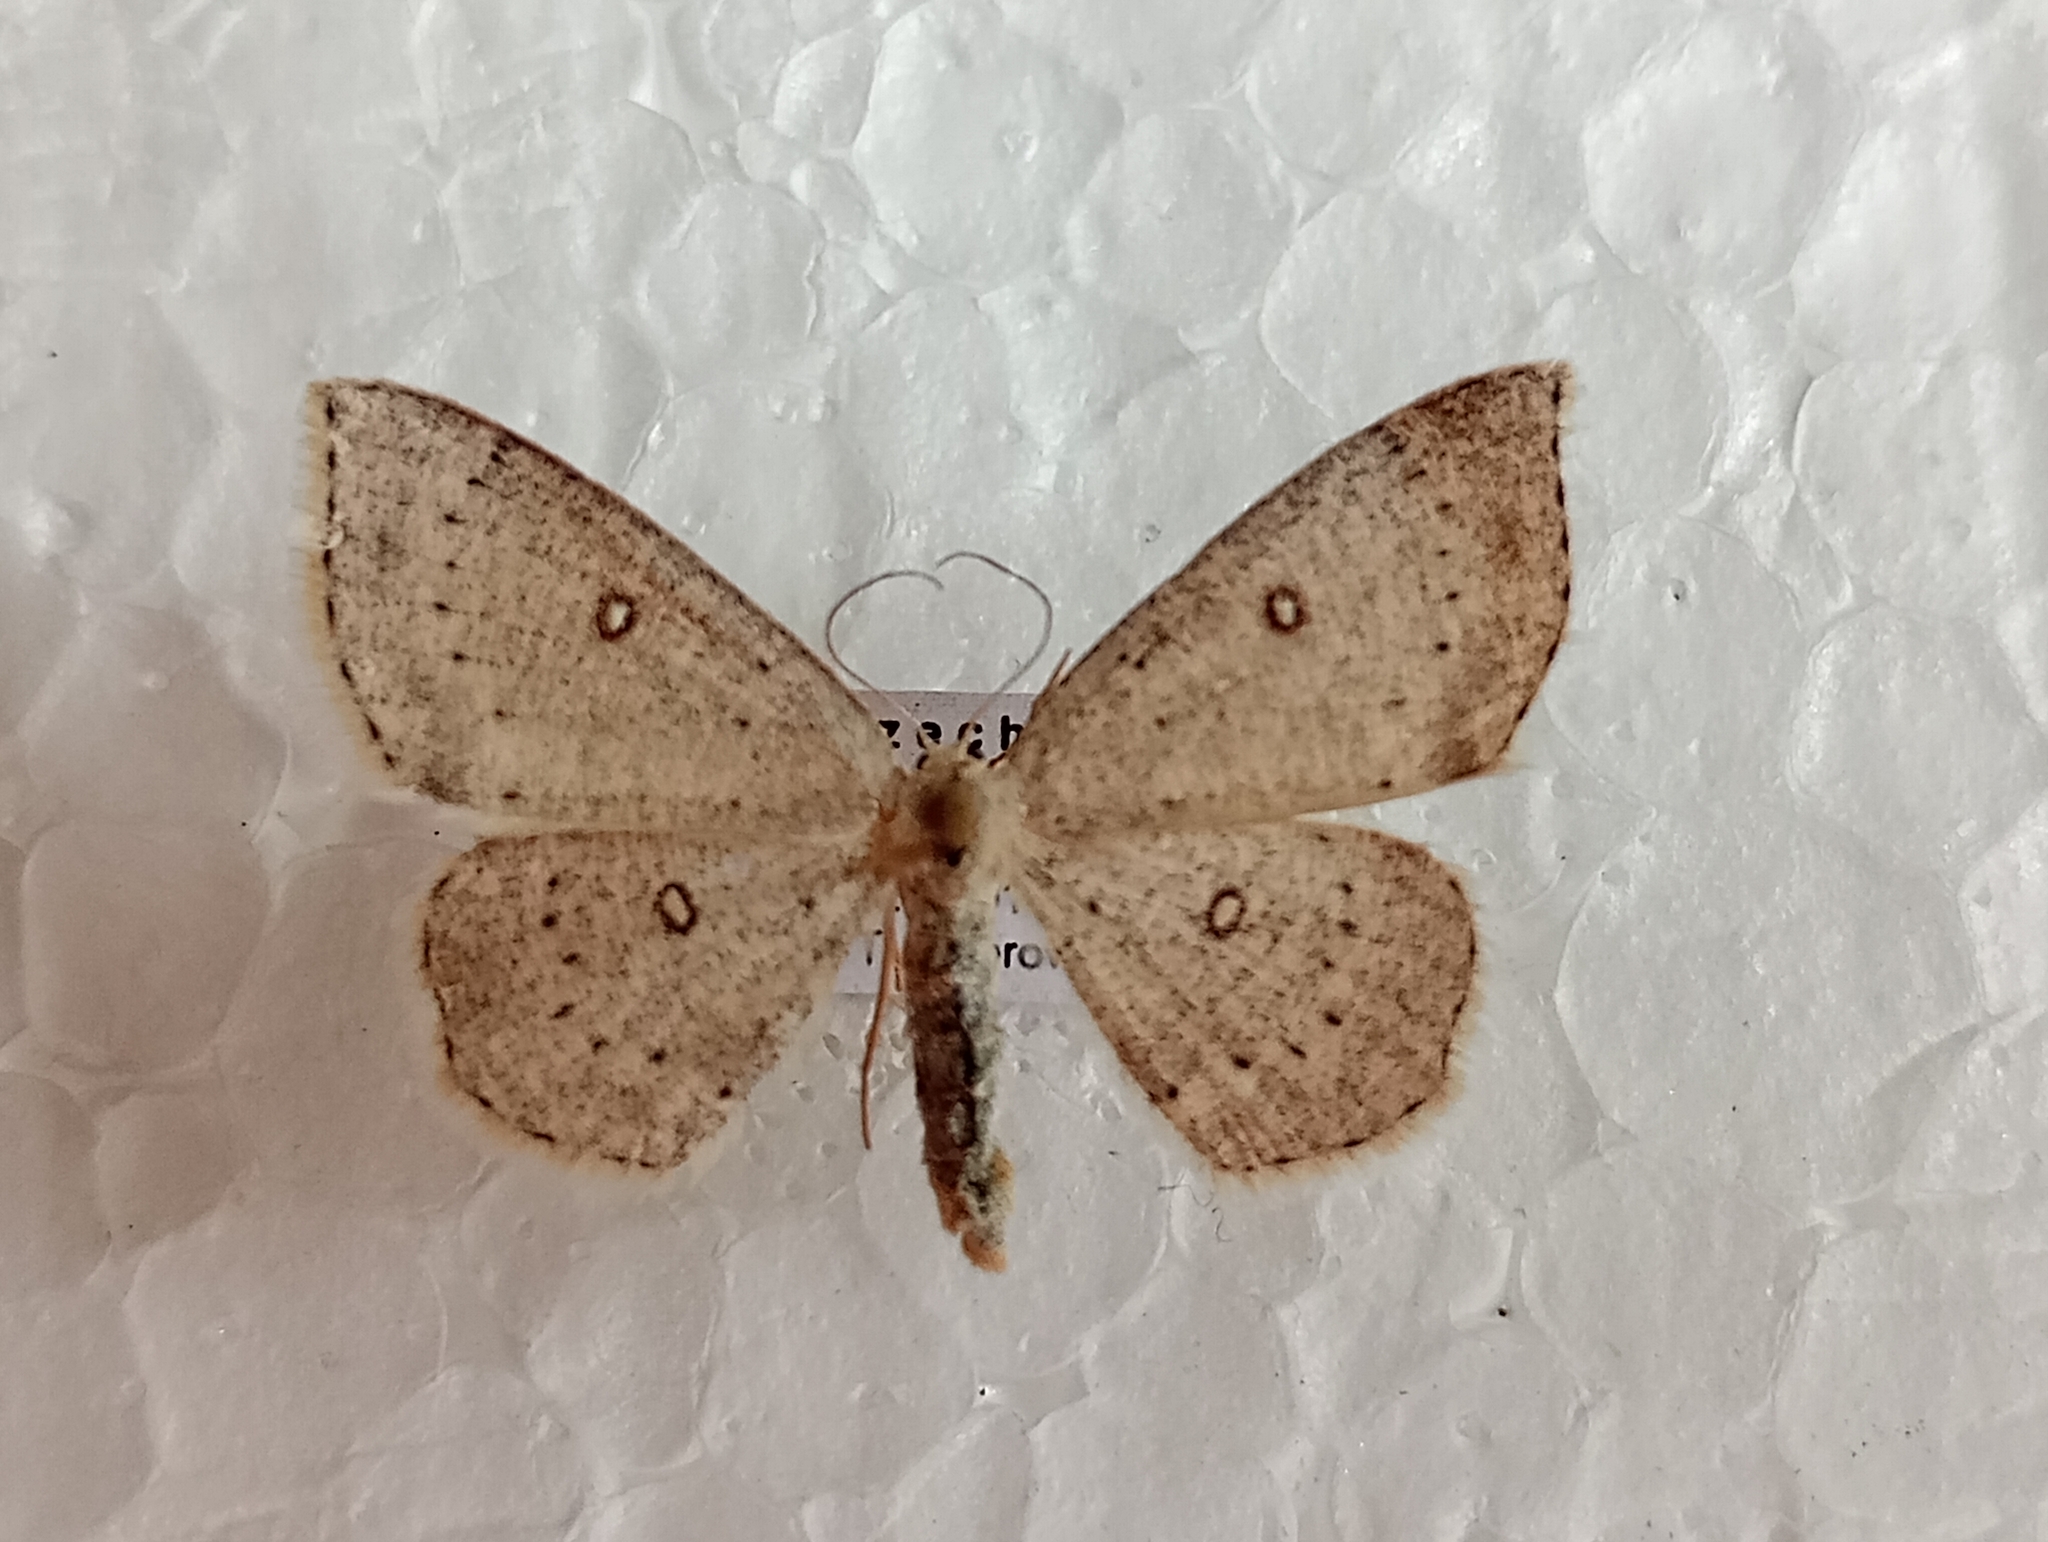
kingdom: Animalia
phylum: Arthropoda
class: Insecta
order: Lepidoptera
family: Geometridae
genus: Cyclophora
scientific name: Cyclophora albipunctata
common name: Birch mocha
